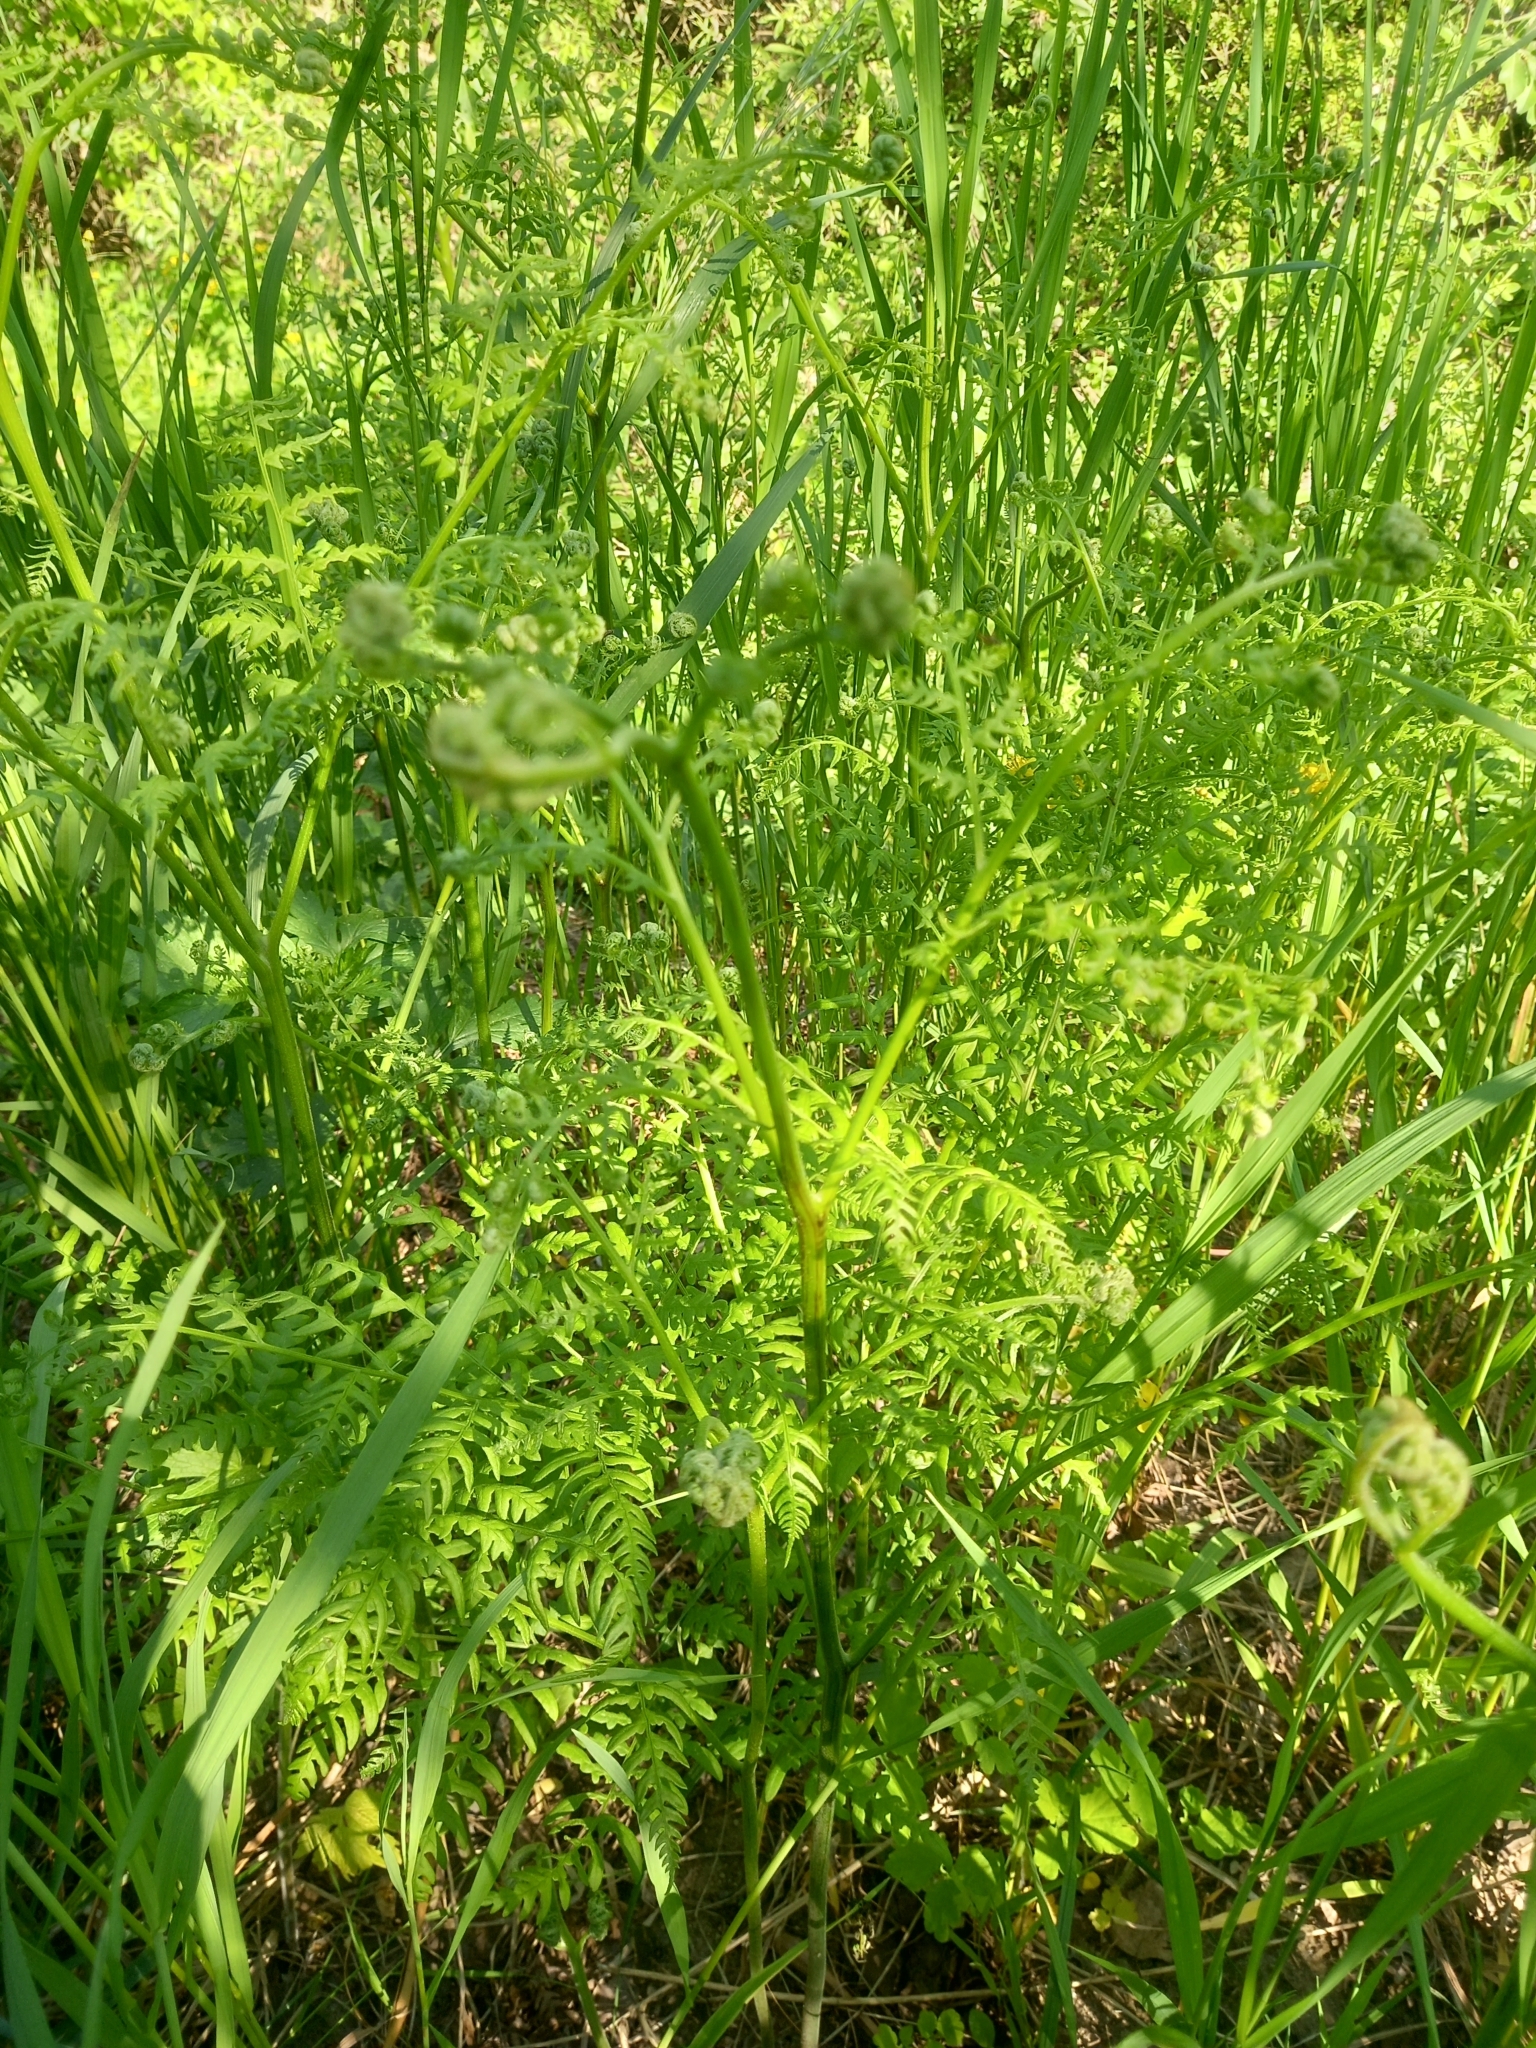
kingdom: Plantae
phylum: Tracheophyta
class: Polypodiopsida
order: Polypodiales
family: Dennstaedtiaceae
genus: Pteridium
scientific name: Pteridium aquilinum
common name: Bracken
